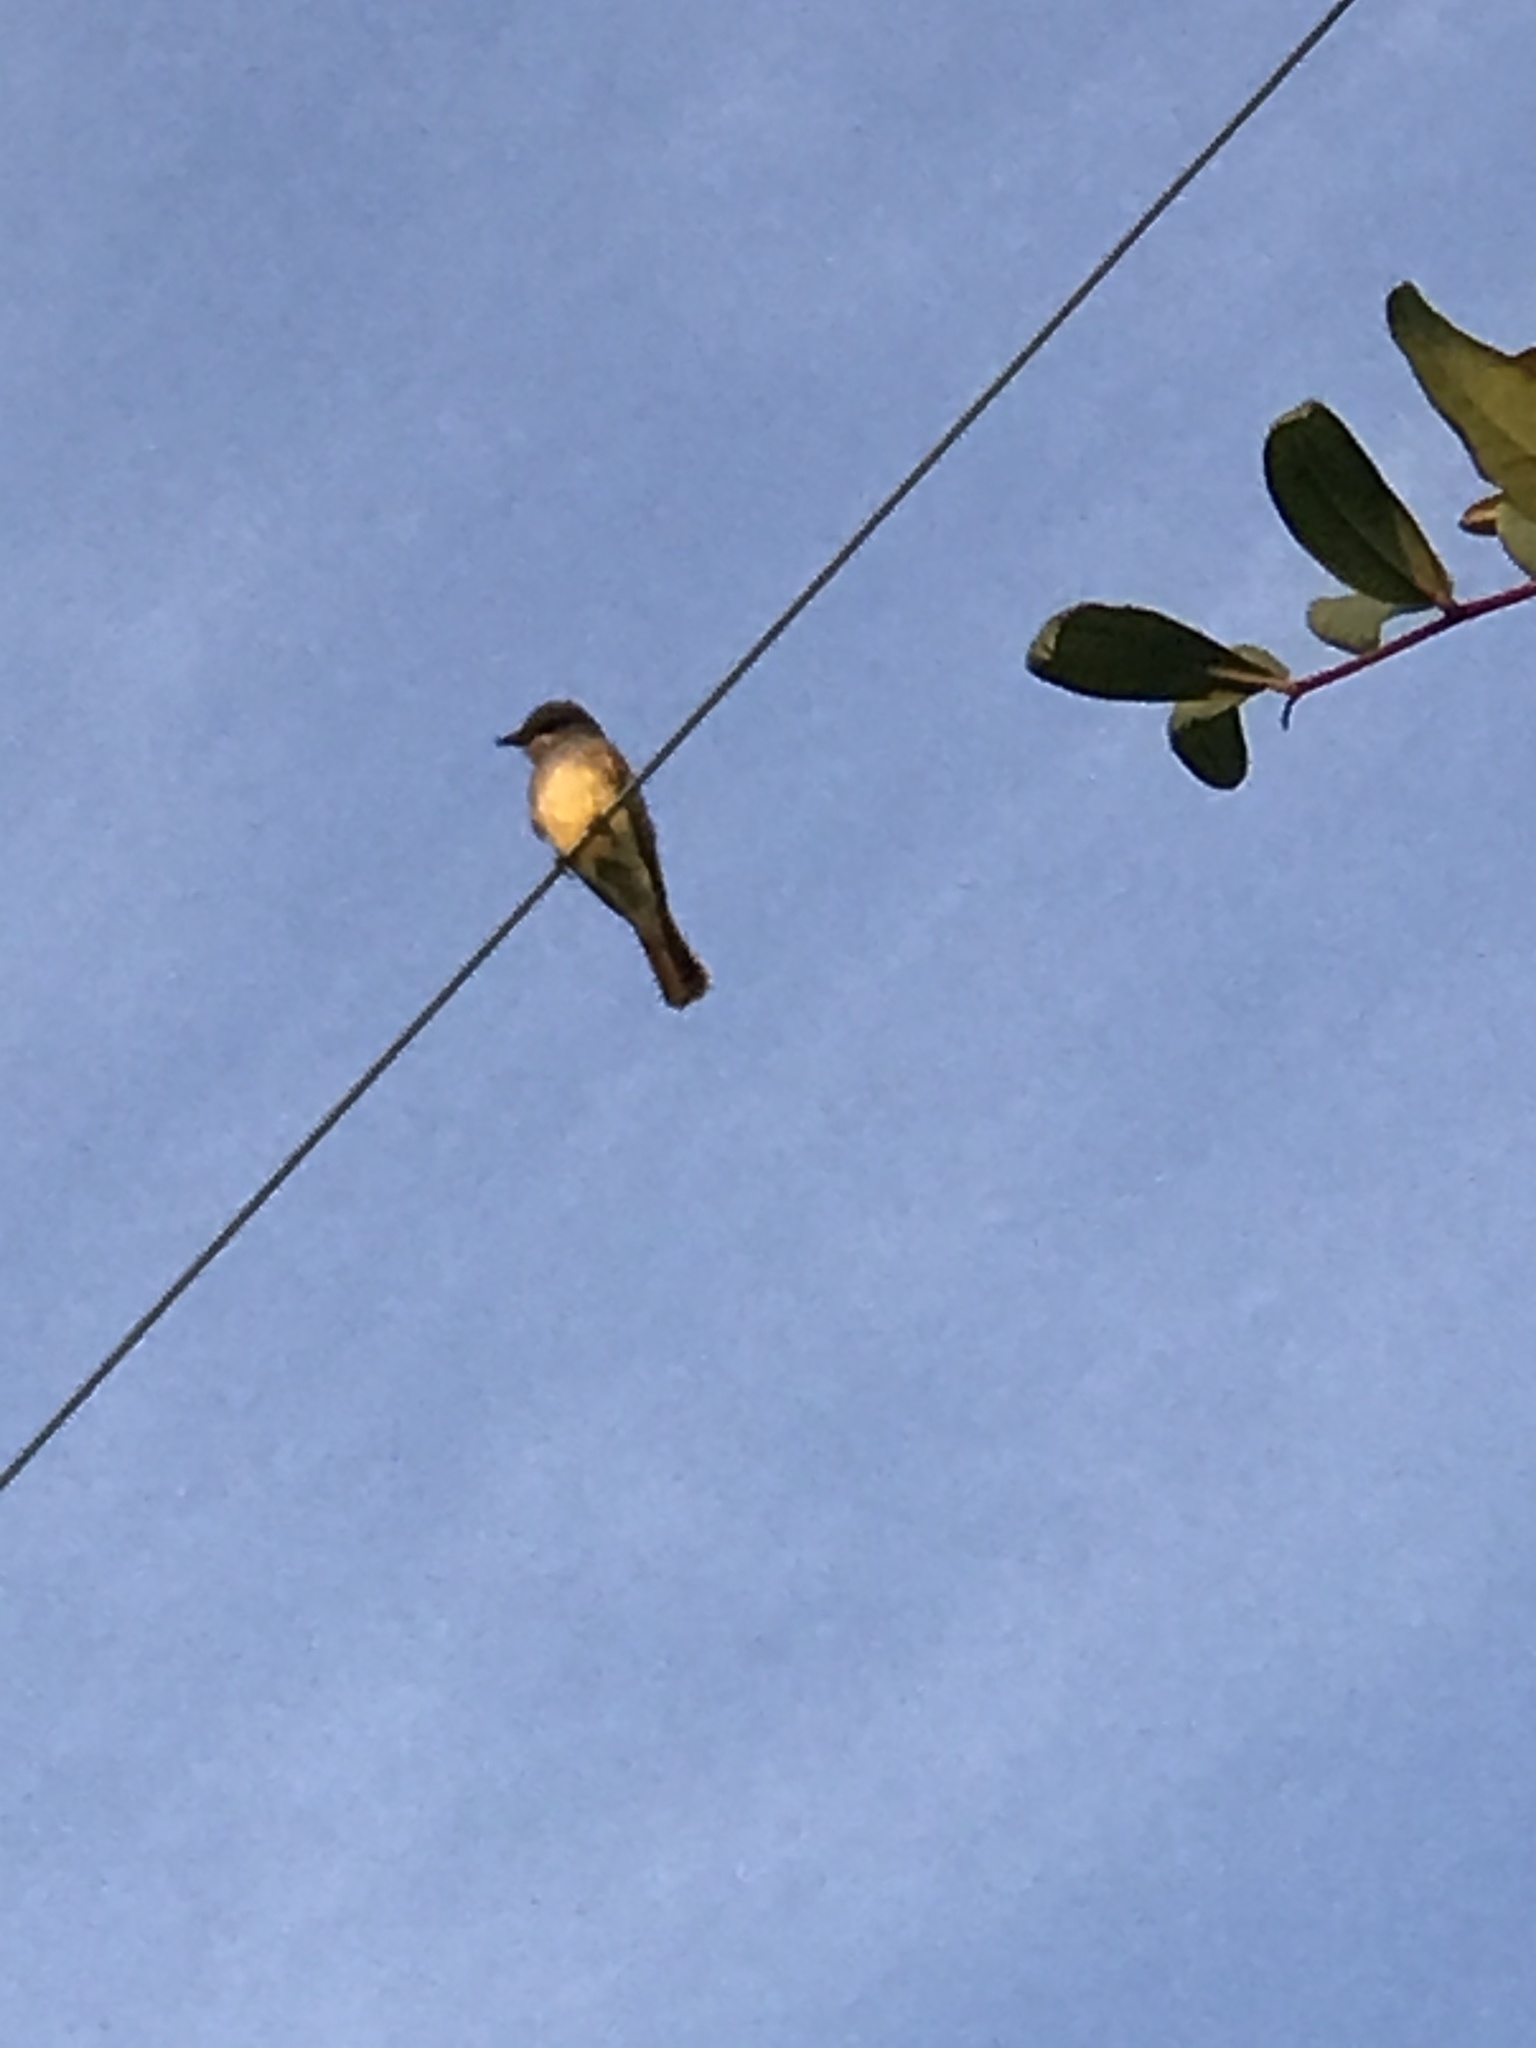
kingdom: Animalia
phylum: Chordata
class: Aves
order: Passeriformes
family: Tyrannidae
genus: Tyrannus
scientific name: Tyrannus vociferans
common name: Cassin's kingbird
